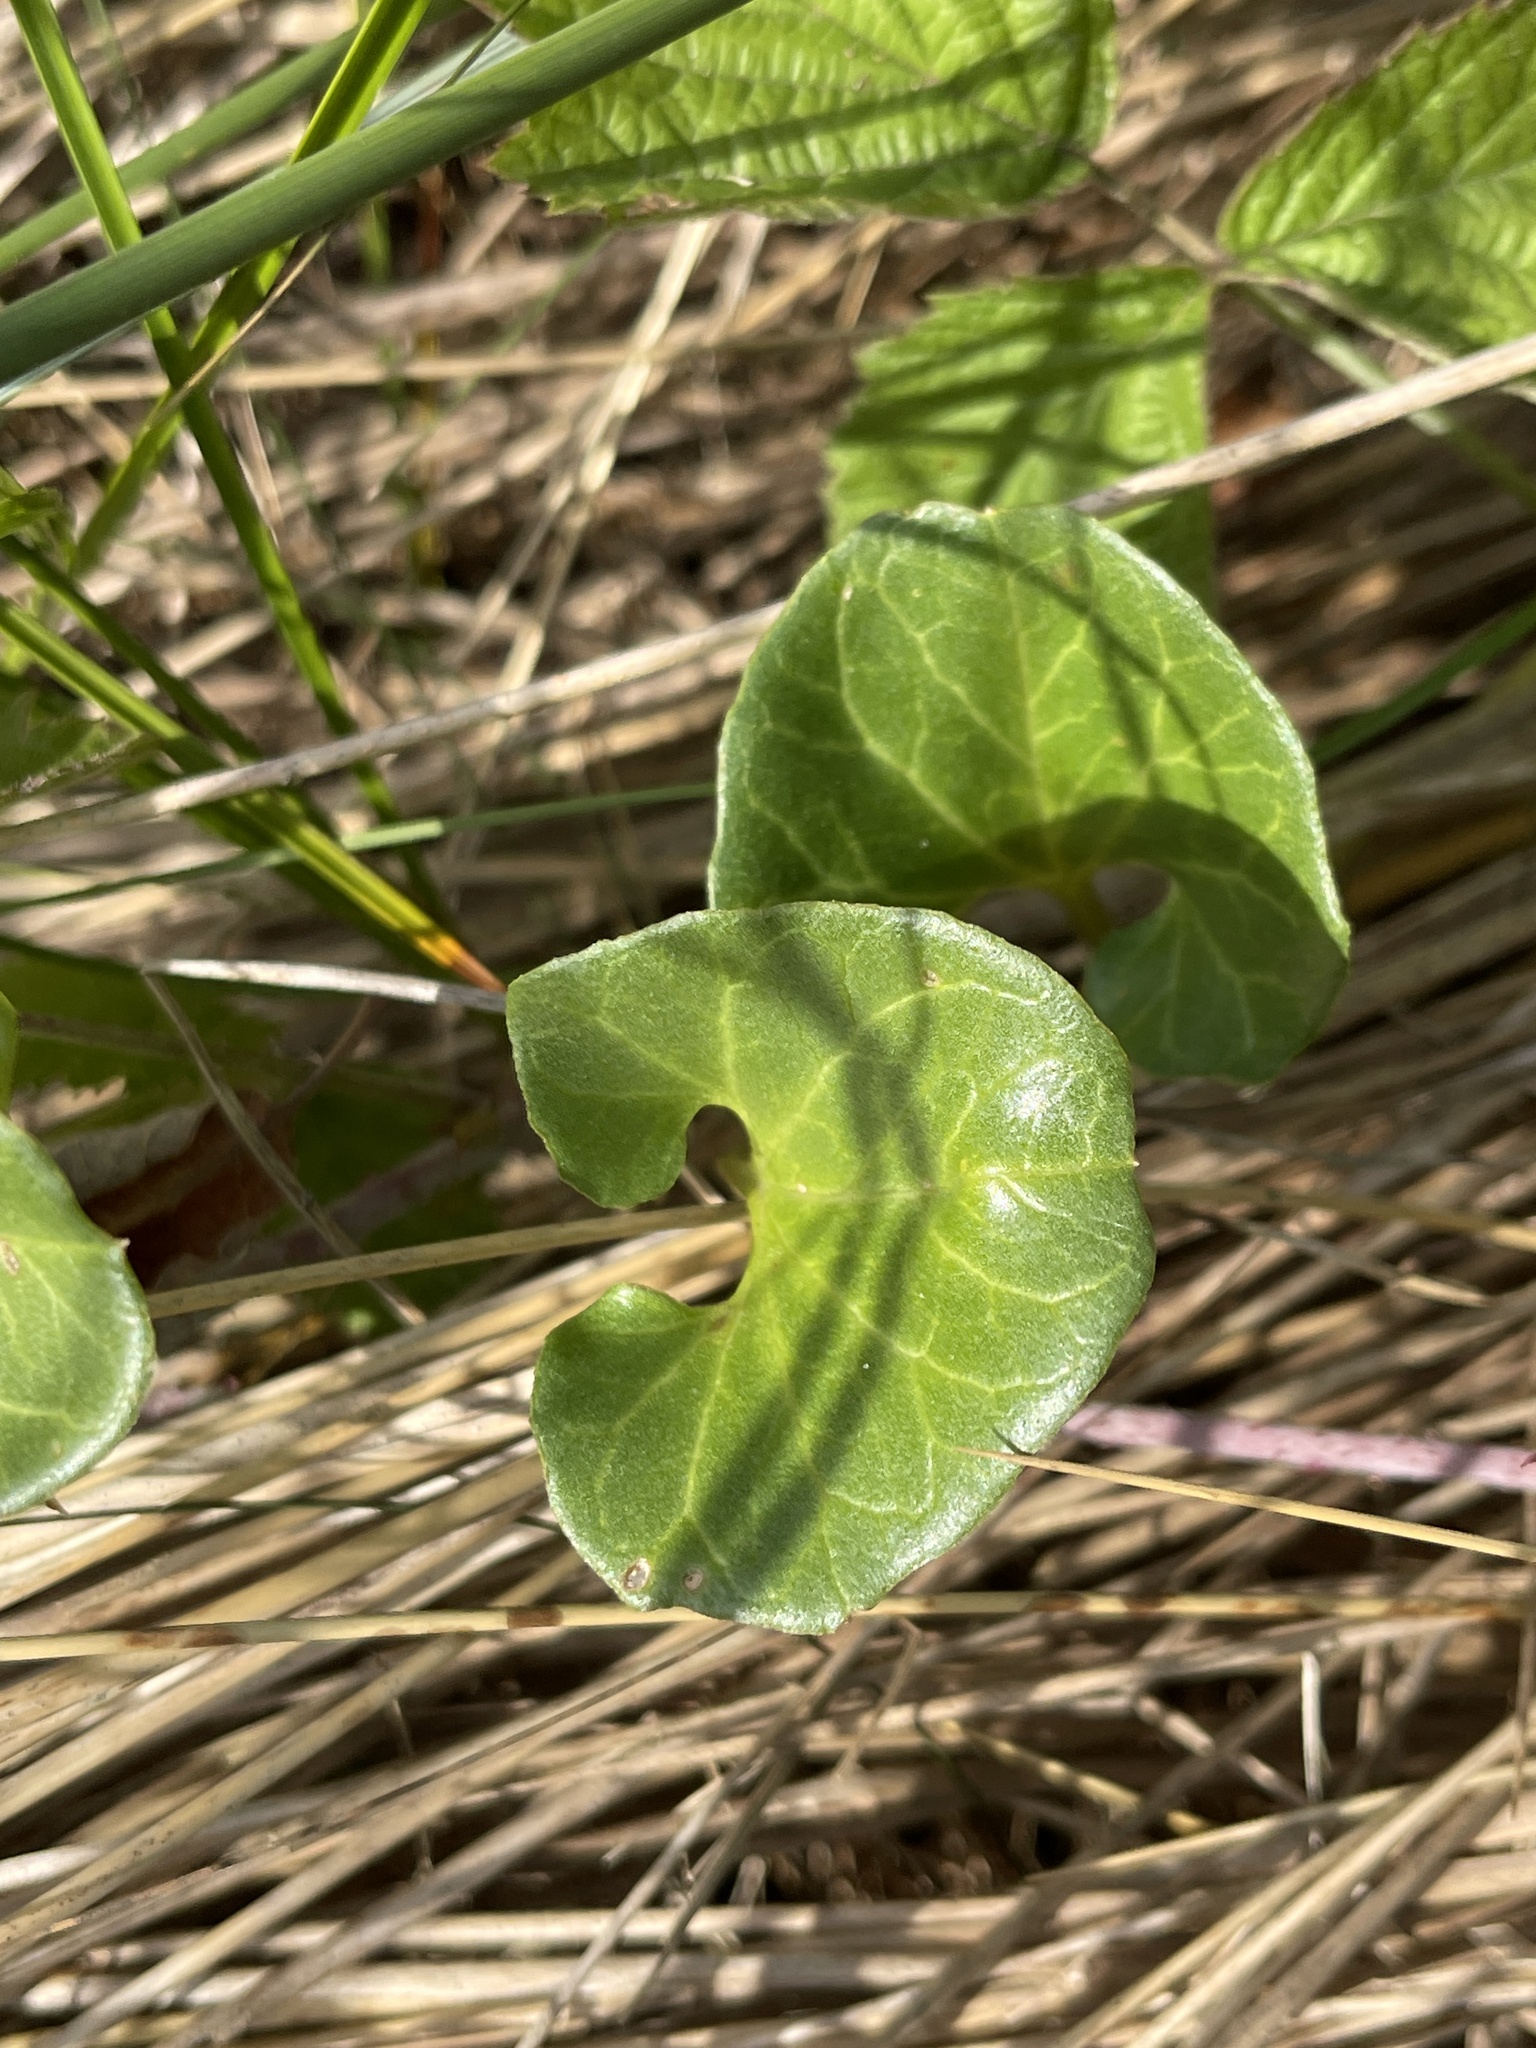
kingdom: Plantae
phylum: Tracheophyta
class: Magnoliopsida
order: Solanales
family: Convolvulaceae
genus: Calystegia
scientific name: Calystegia soldanella
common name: Sea bindweed
